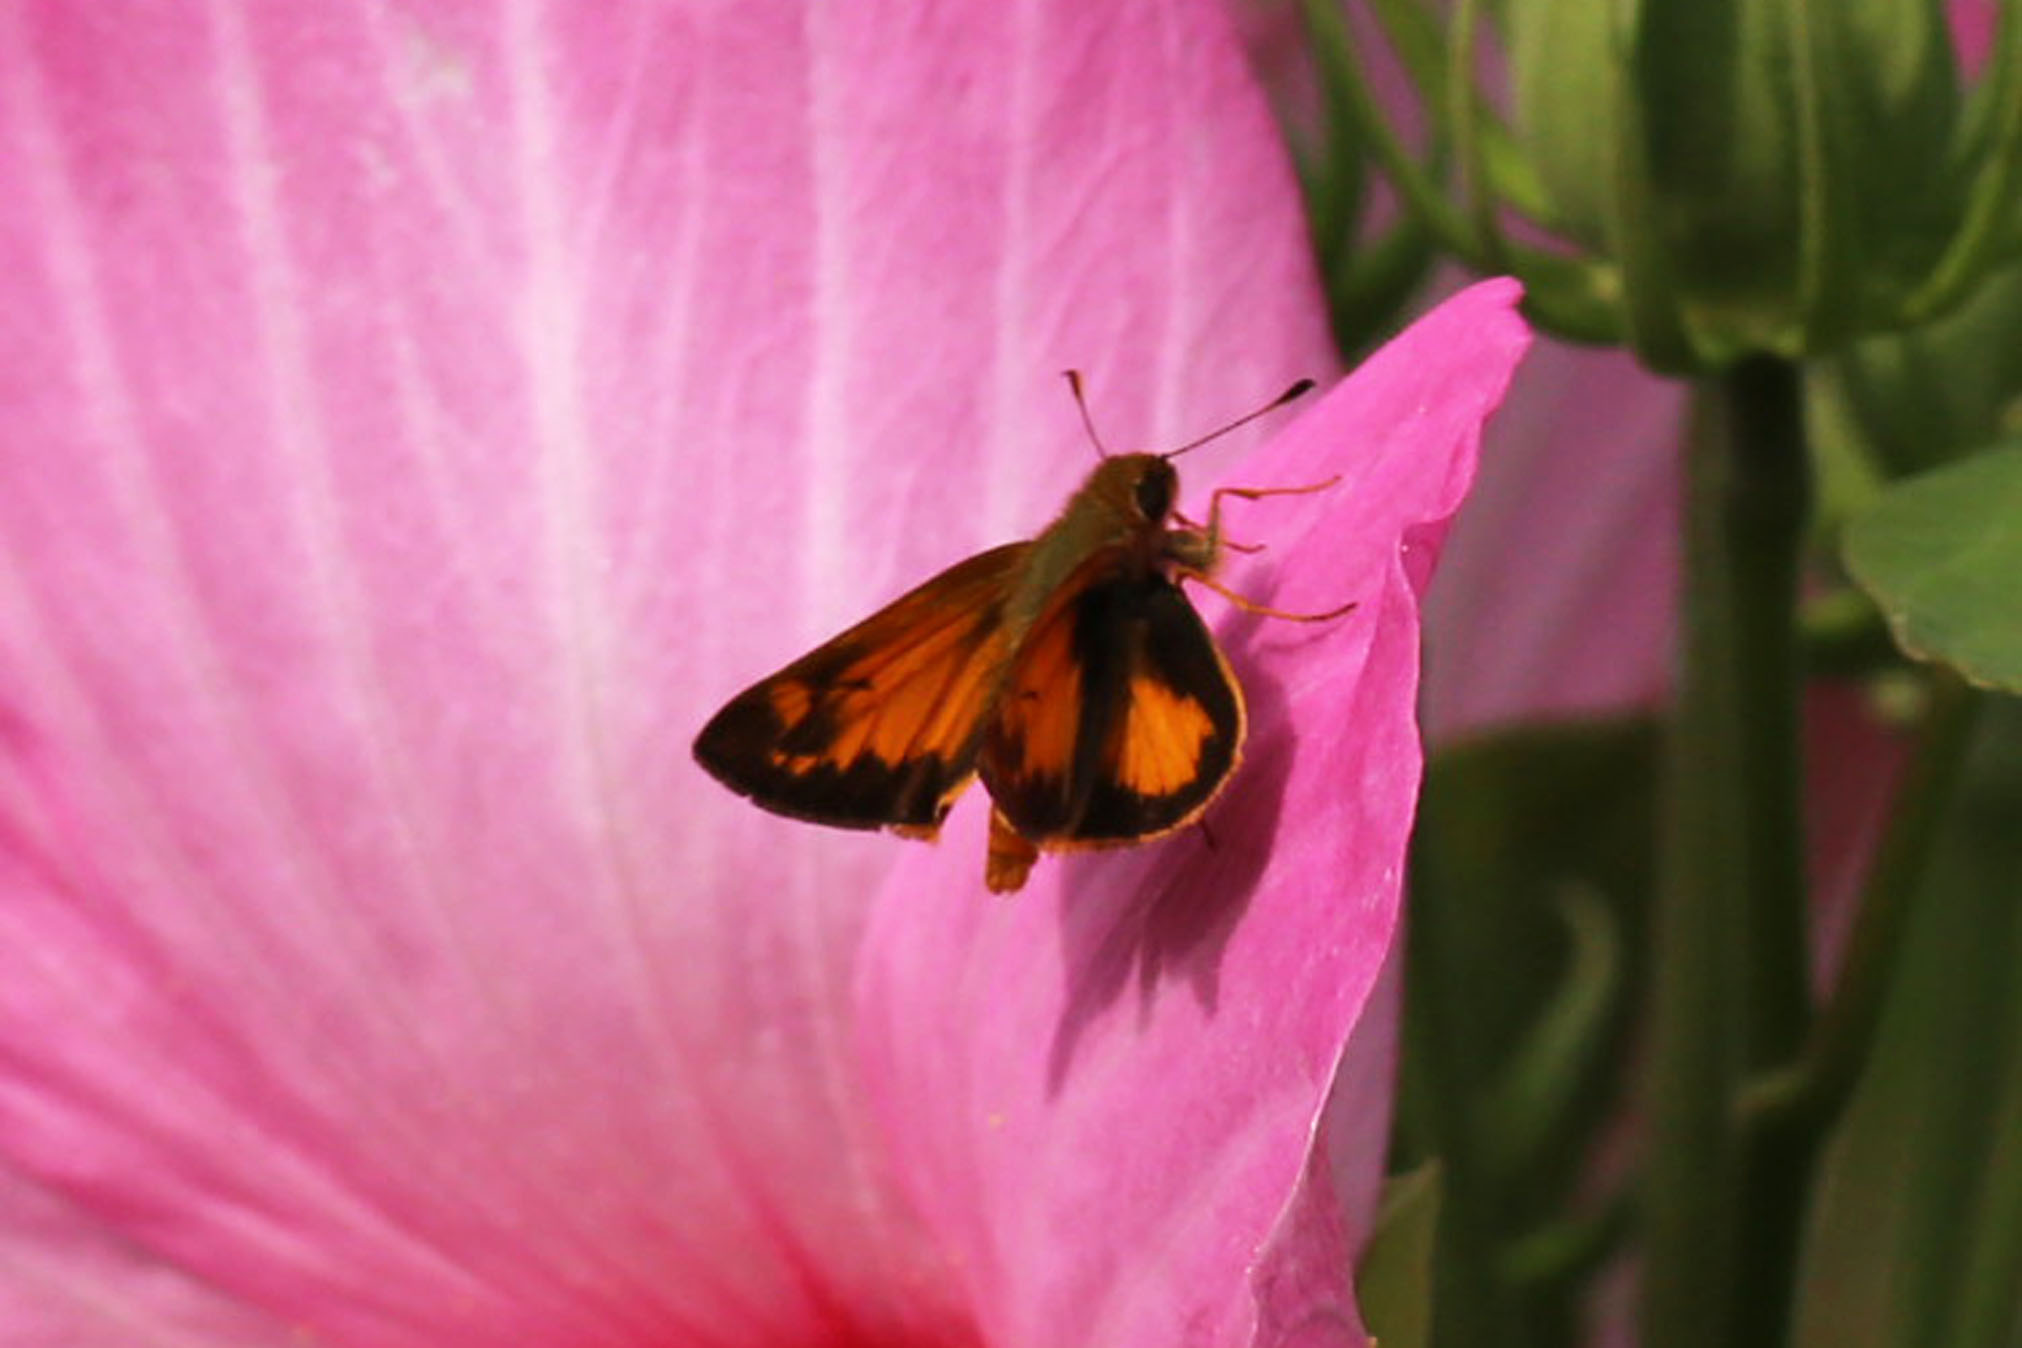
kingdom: Animalia
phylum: Arthropoda
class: Insecta
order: Lepidoptera
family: Hesperiidae
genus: Lon
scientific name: Lon zabulon
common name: Zabulon skipper
